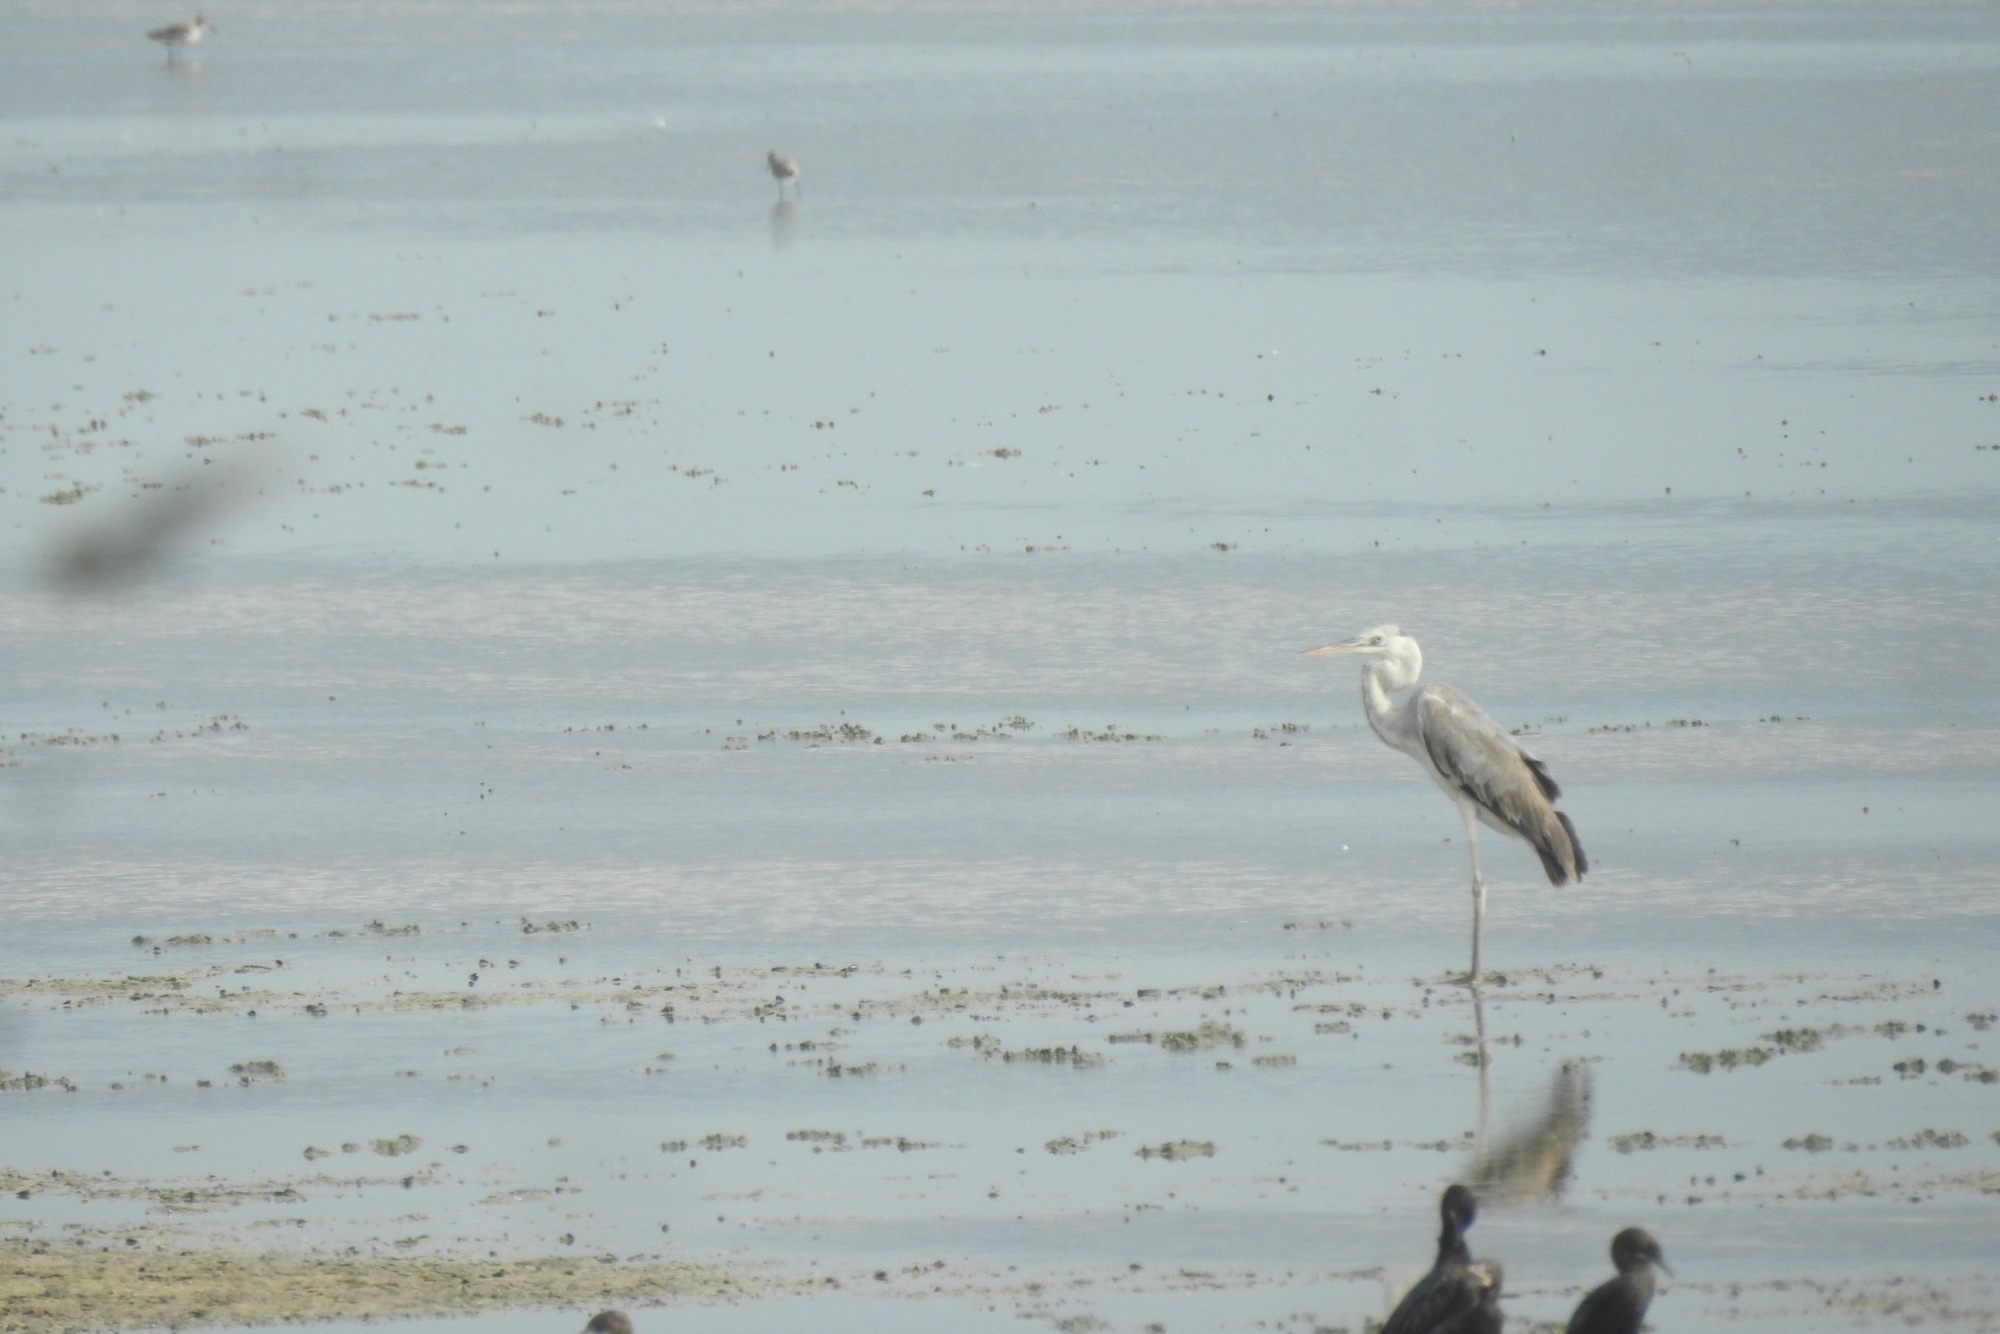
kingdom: Animalia
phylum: Chordata
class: Aves
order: Pelecaniformes
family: Ardeidae
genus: Ardea
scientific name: Ardea cinerea
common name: Grey heron
